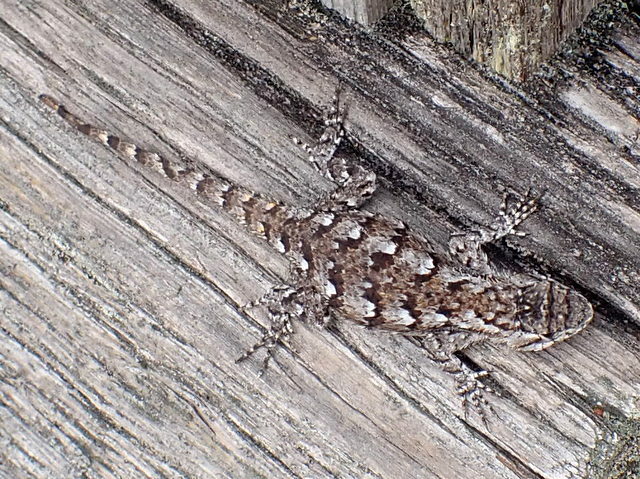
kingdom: Animalia
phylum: Chordata
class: Squamata
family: Phrynosomatidae
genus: Sceloporus
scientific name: Sceloporus undulatus
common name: Eastern fence lizard
